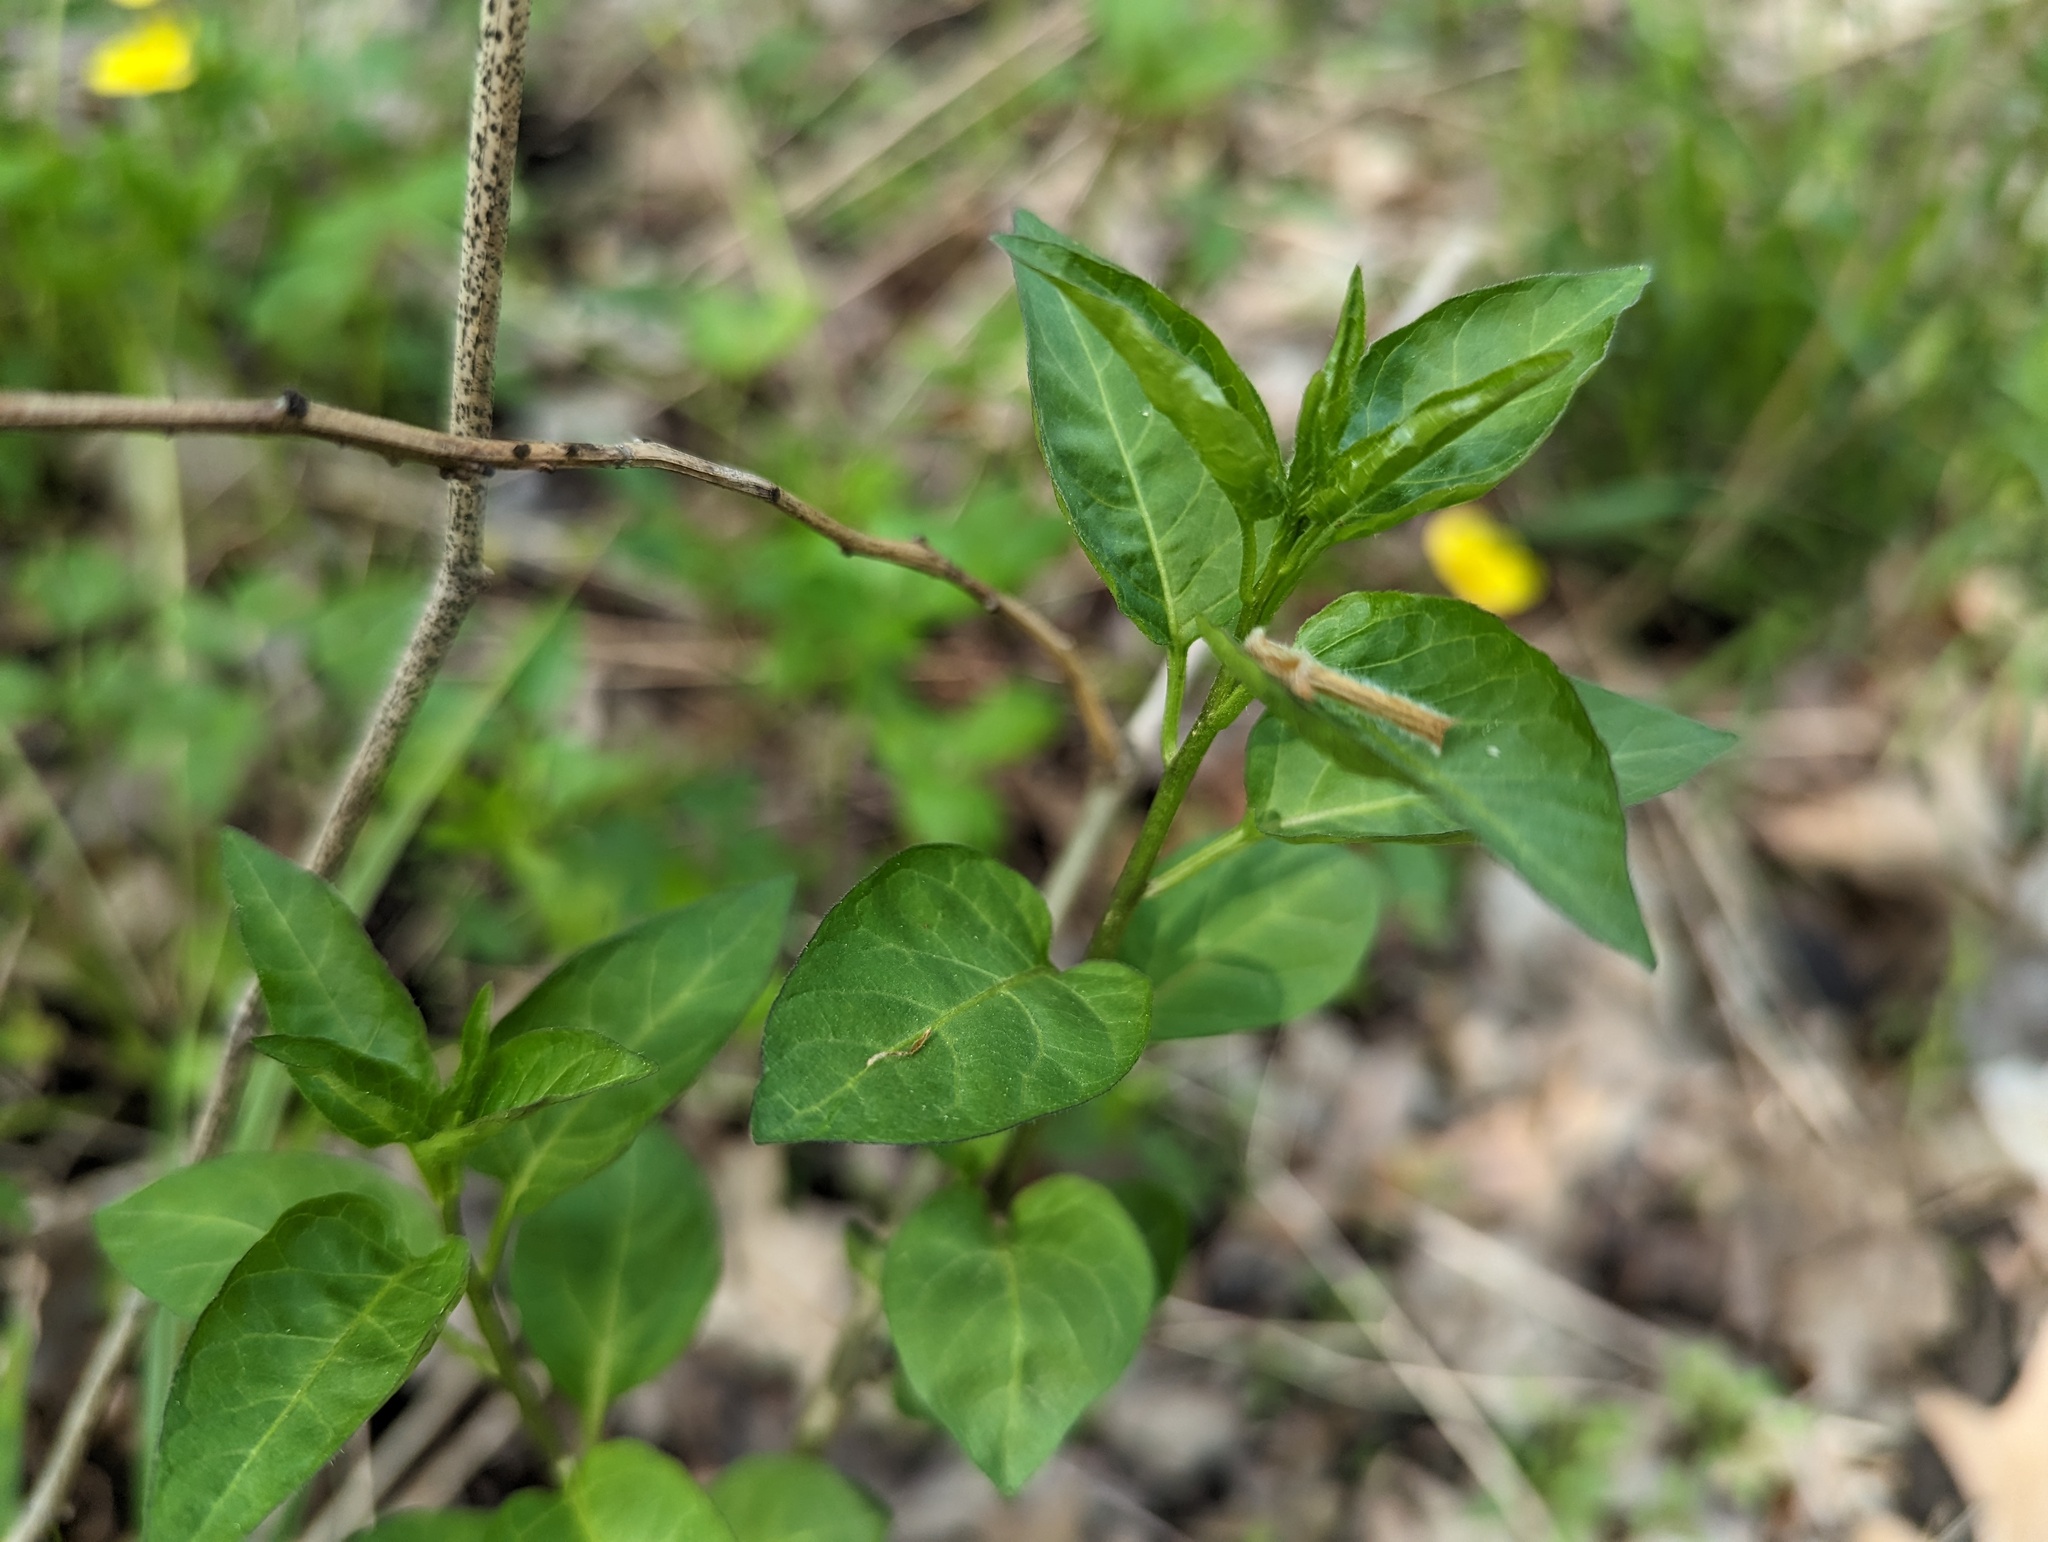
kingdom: Plantae
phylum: Tracheophyta
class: Magnoliopsida
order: Solanales
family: Solanaceae
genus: Solanum
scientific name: Solanum dulcamara
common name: Climbing nightshade
